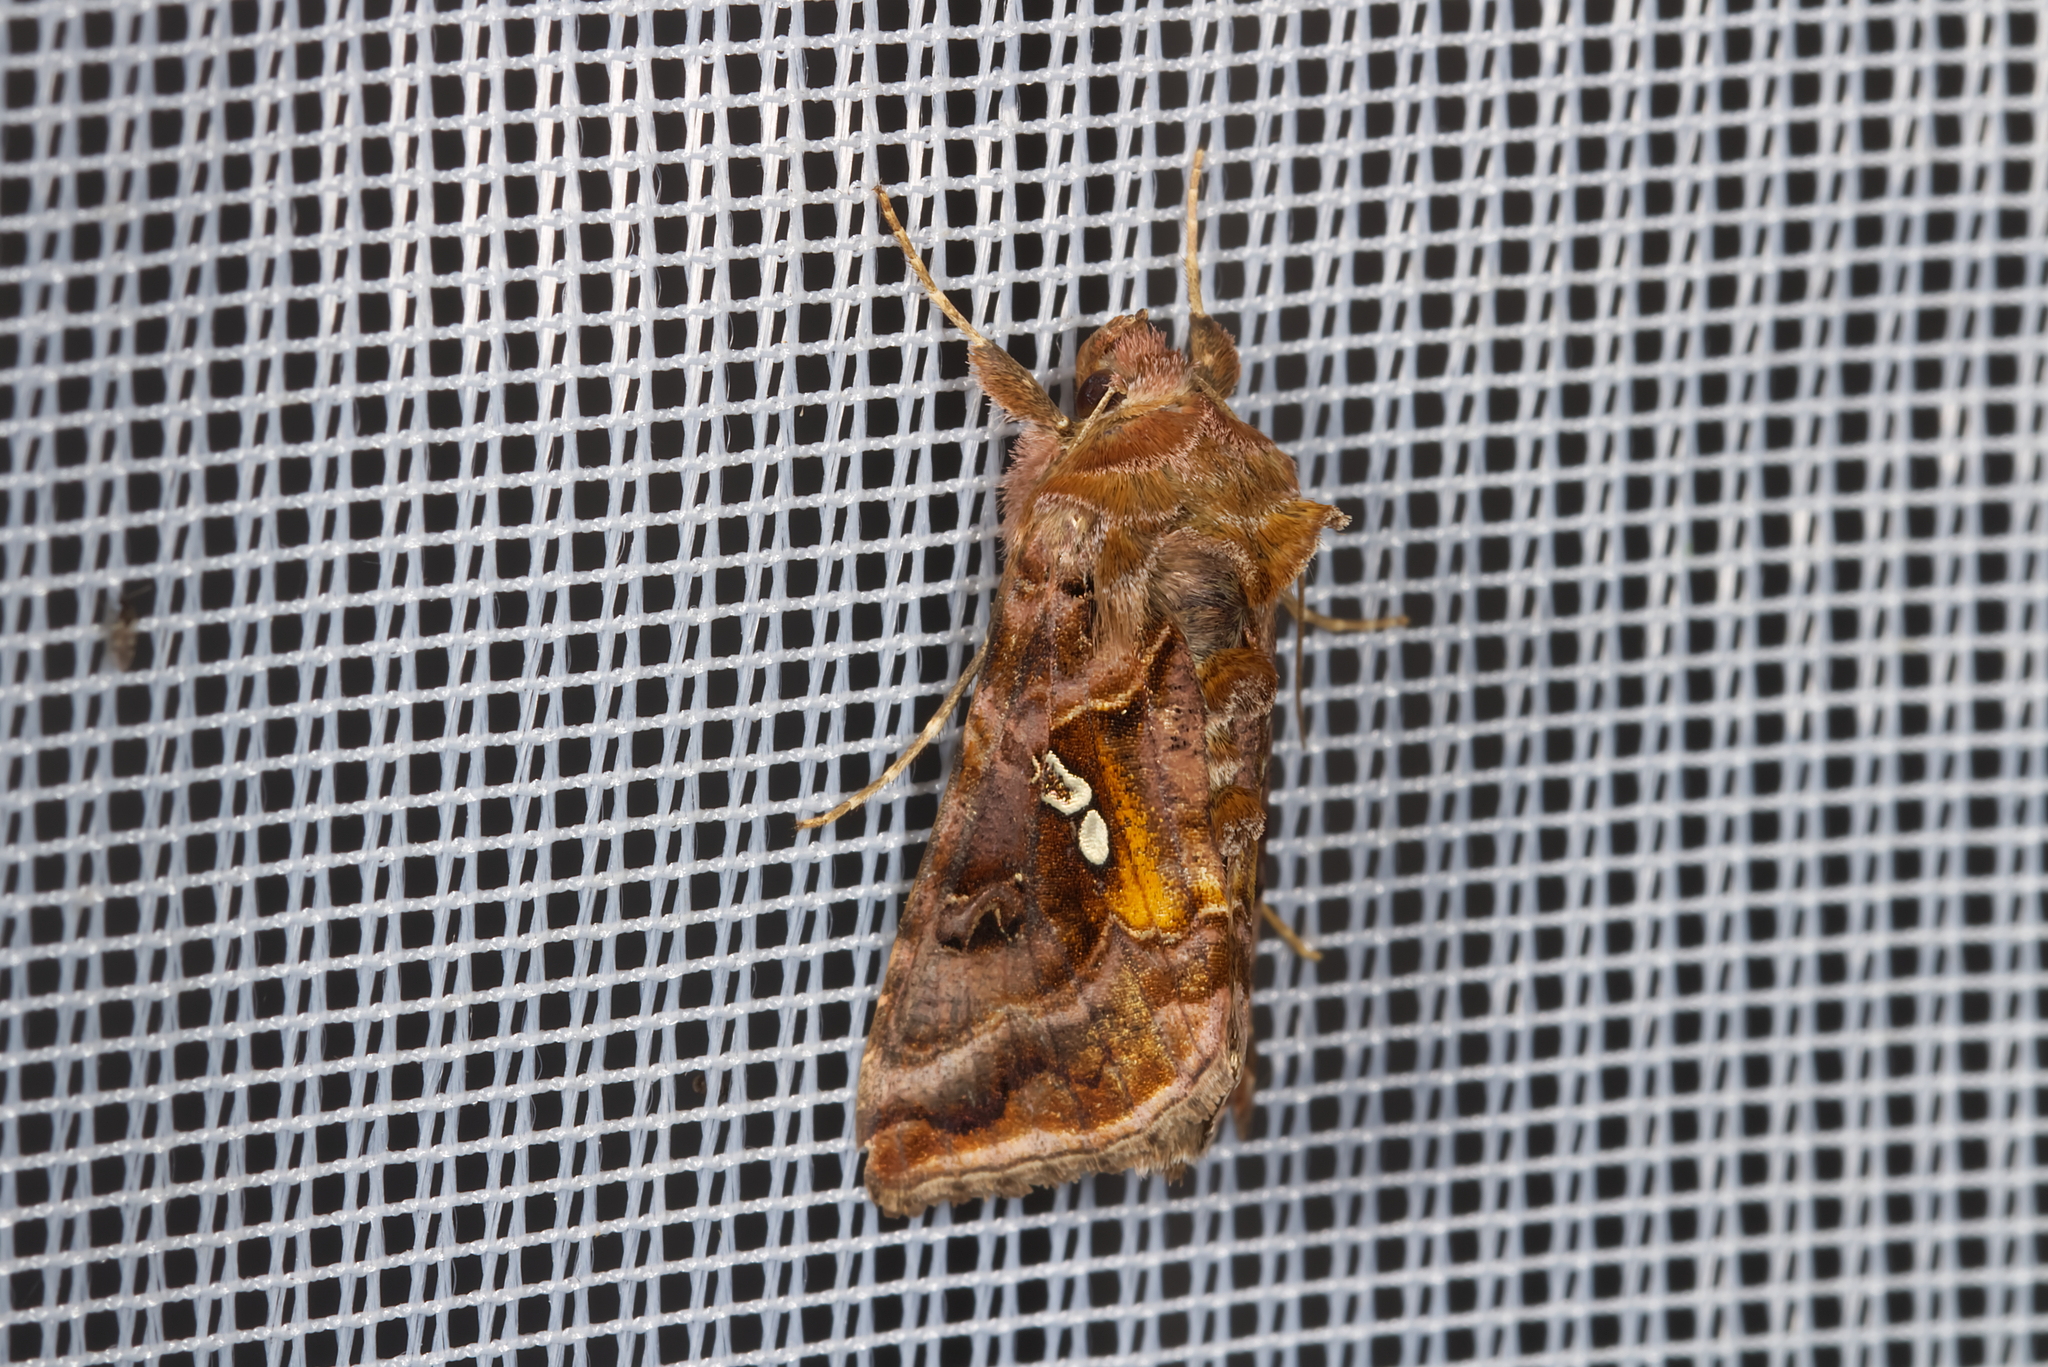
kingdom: Animalia
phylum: Arthropoda
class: Insecta
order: Lepidoptera
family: Noctuidae
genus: Autographa
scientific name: Autographa pulchrina
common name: Beautiful golden y
